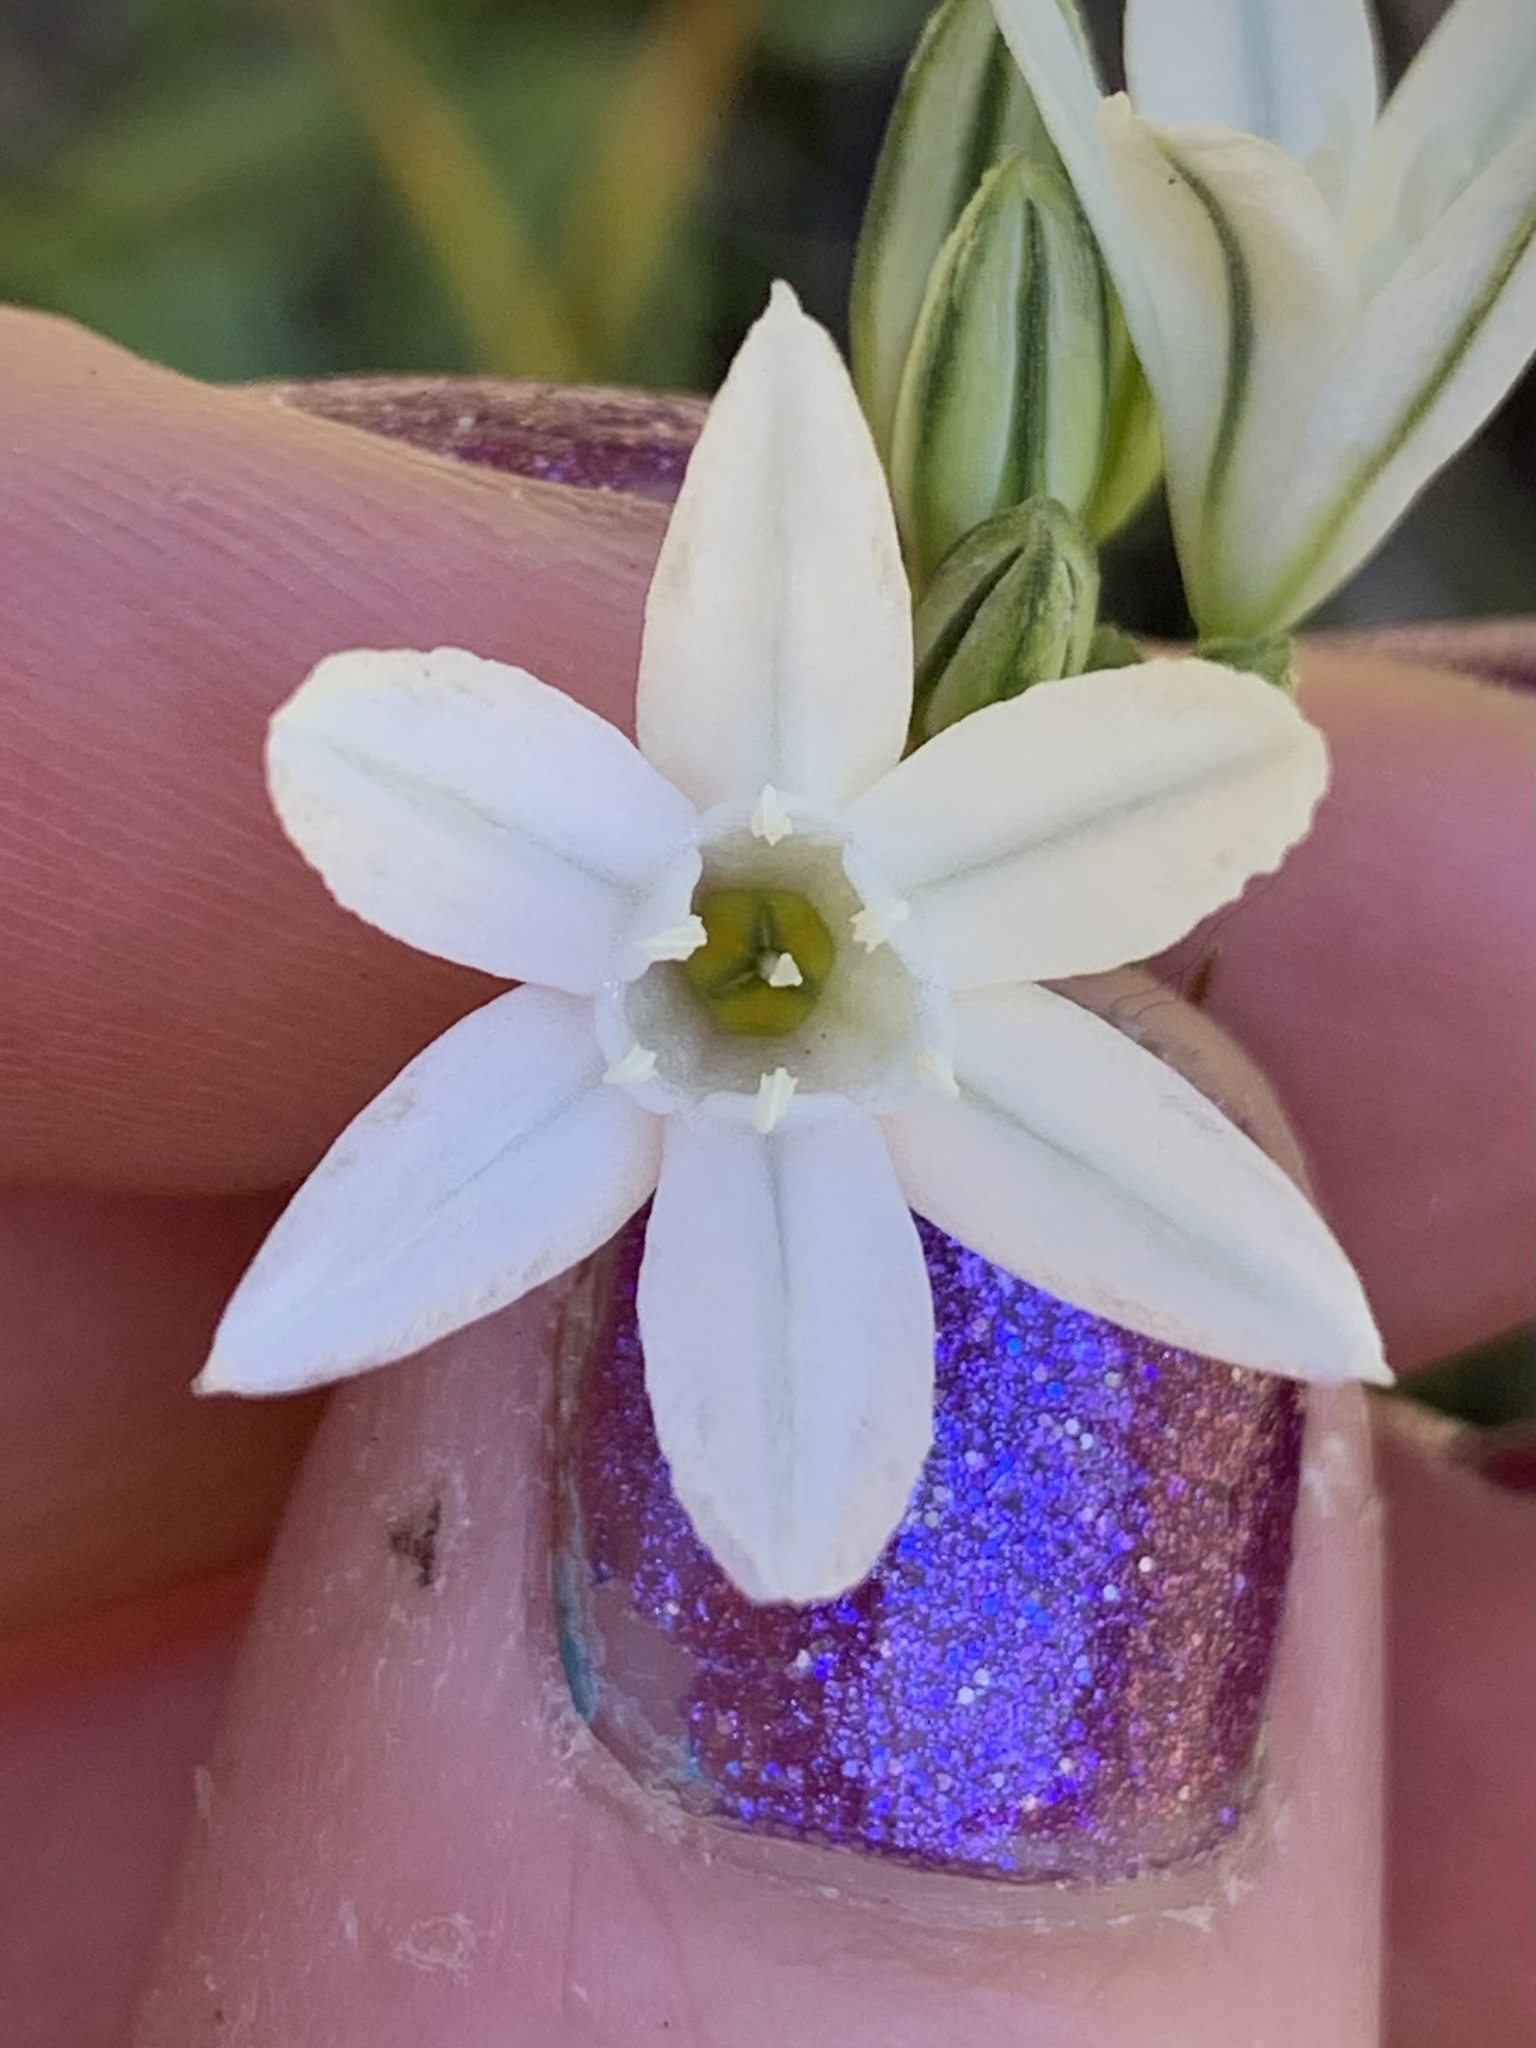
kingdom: Plantae
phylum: Tracheophyta
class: Liliopsida
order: Asparagales
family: Asparagaceae
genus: Triteleia
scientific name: Triteleia hyacinthina
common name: White brodiaea
